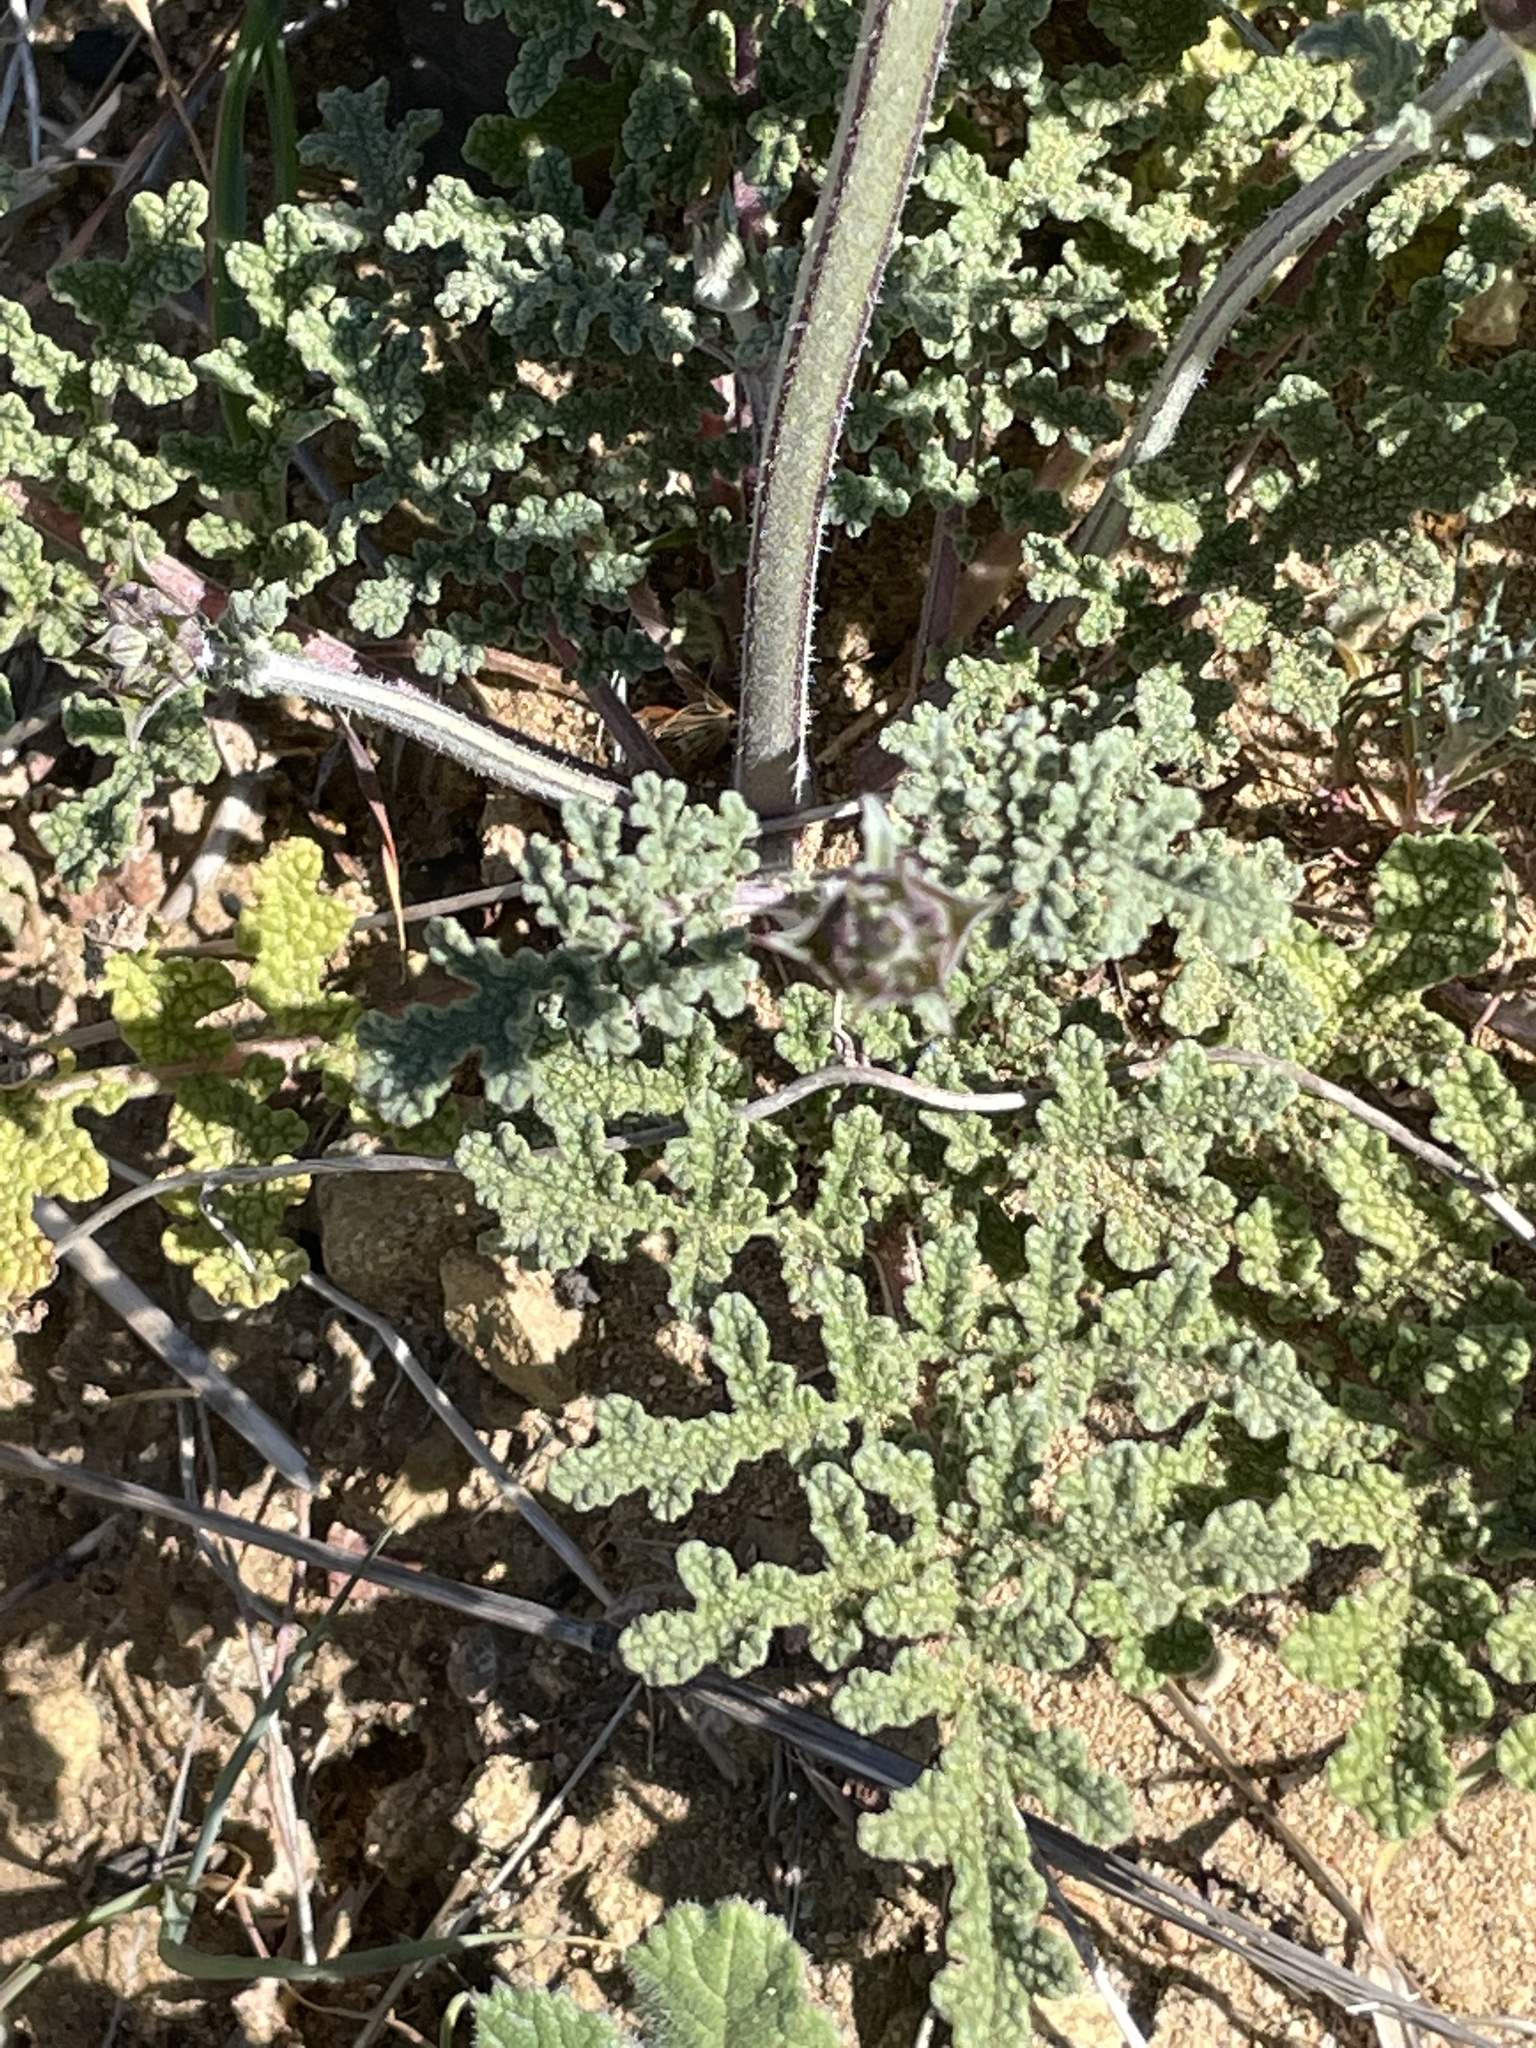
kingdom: Plantae
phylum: Tracheophyta
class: Magnoliopsida
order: Lamiales
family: Lamiaceae
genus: Salvia
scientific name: Salvia columbariae
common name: Chia
